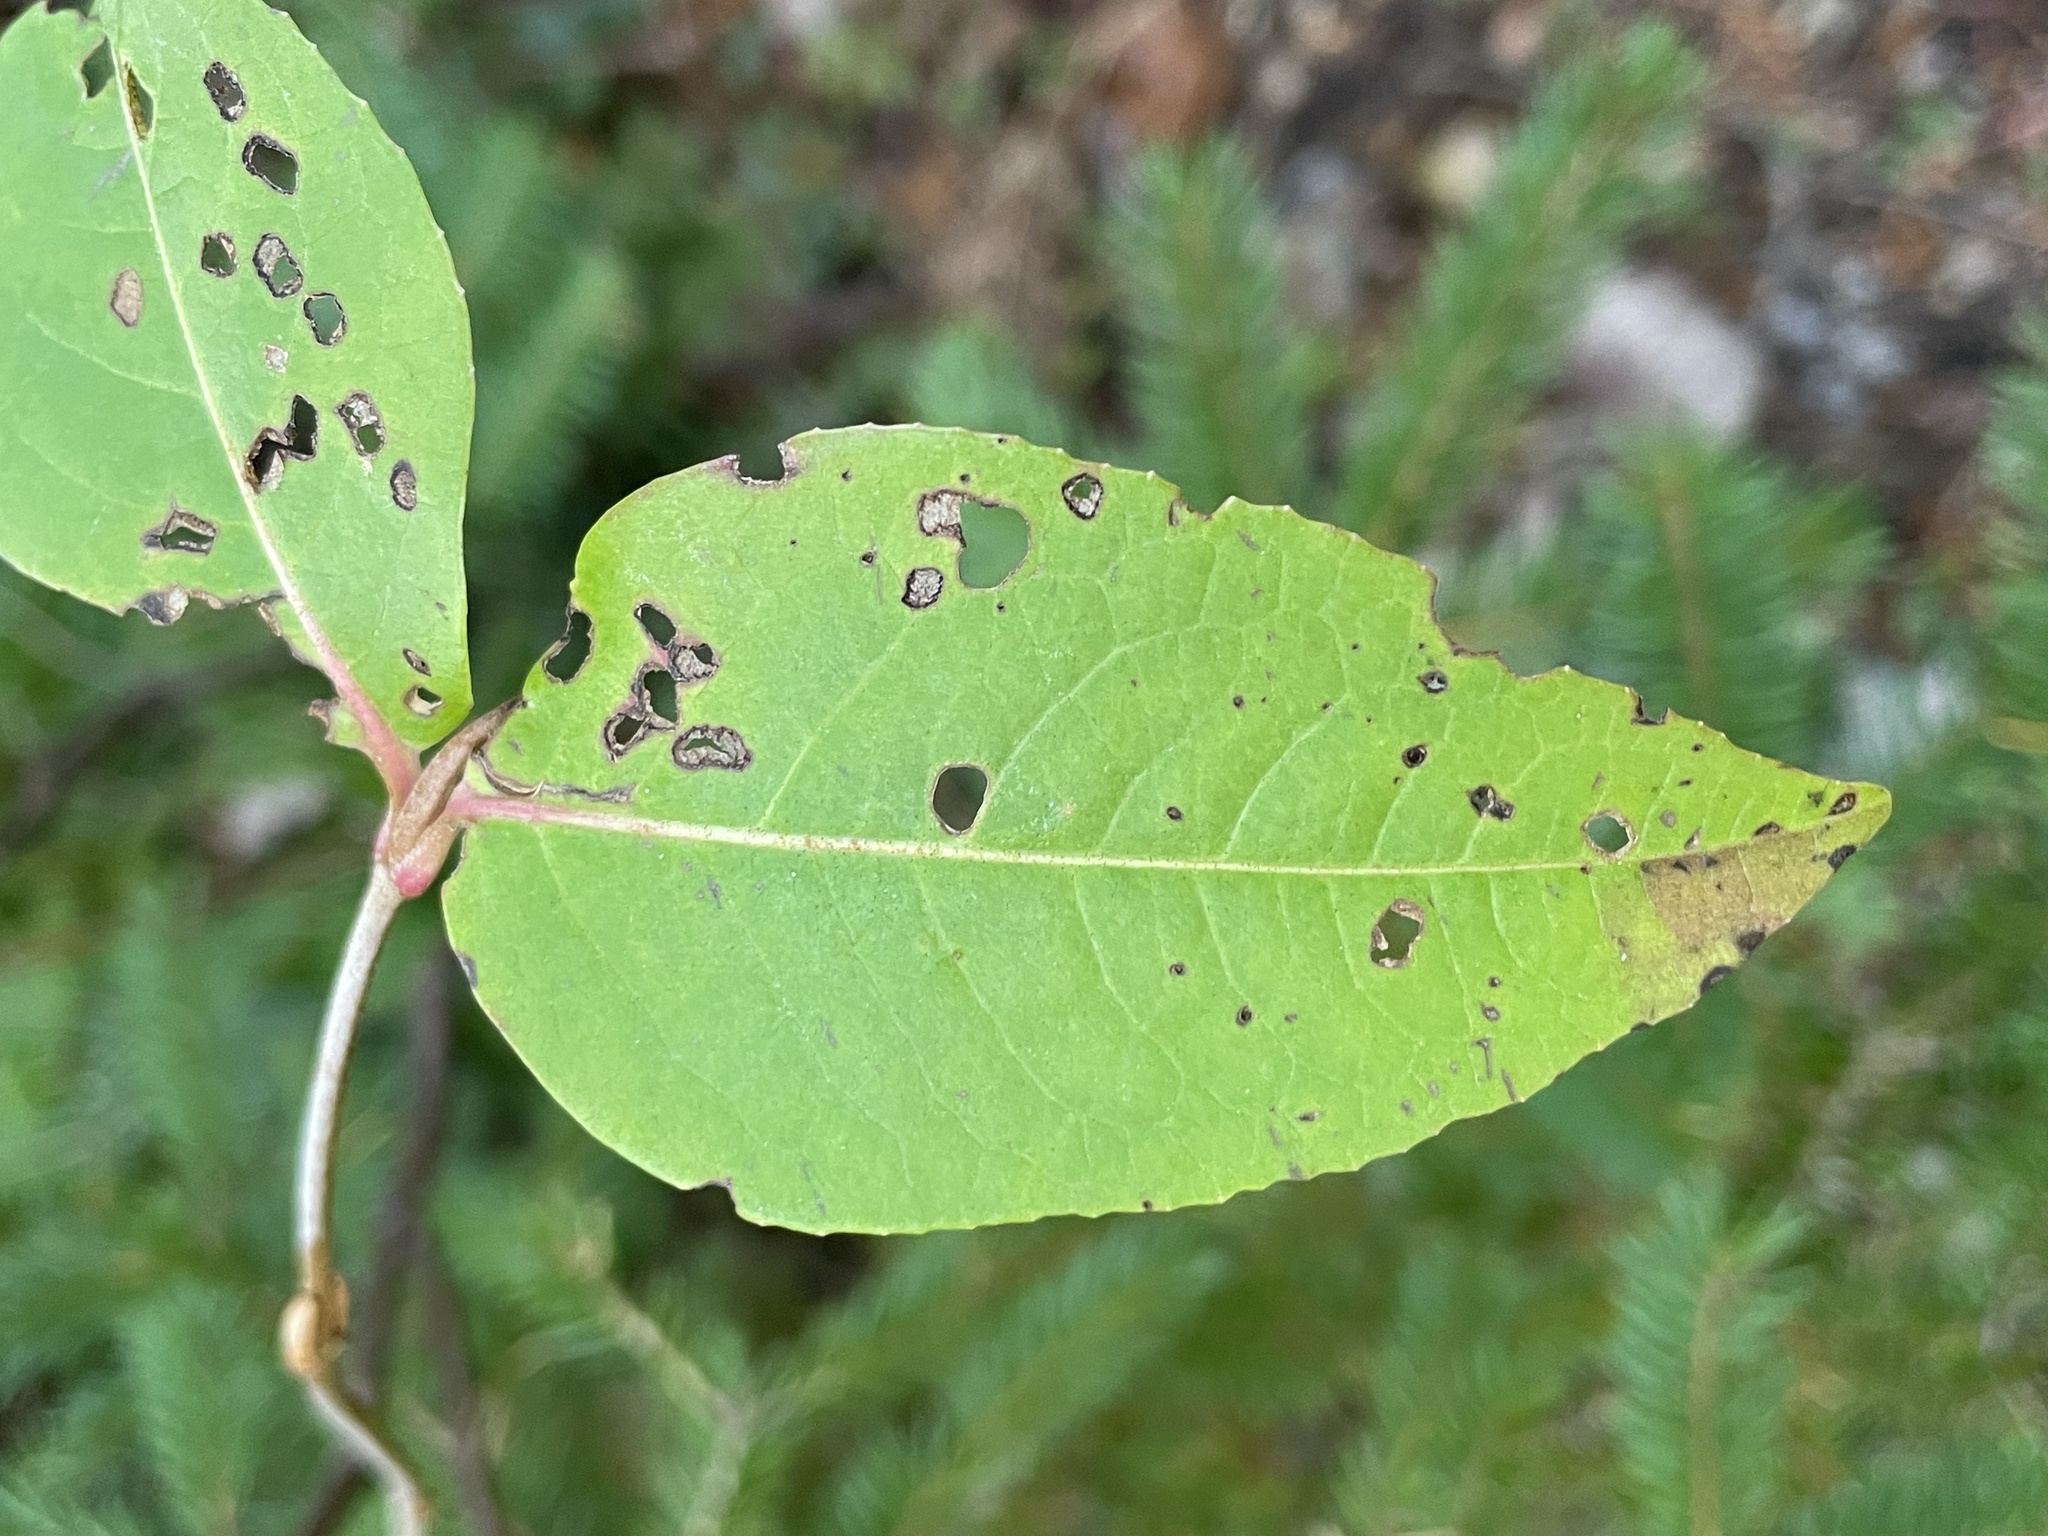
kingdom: Plantae
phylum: Tracheophyta
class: Magnoliopsida
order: Dipsacales
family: Viburnaceae
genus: Viburnum
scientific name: Viburnum cassinoides
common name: Swamp haw
